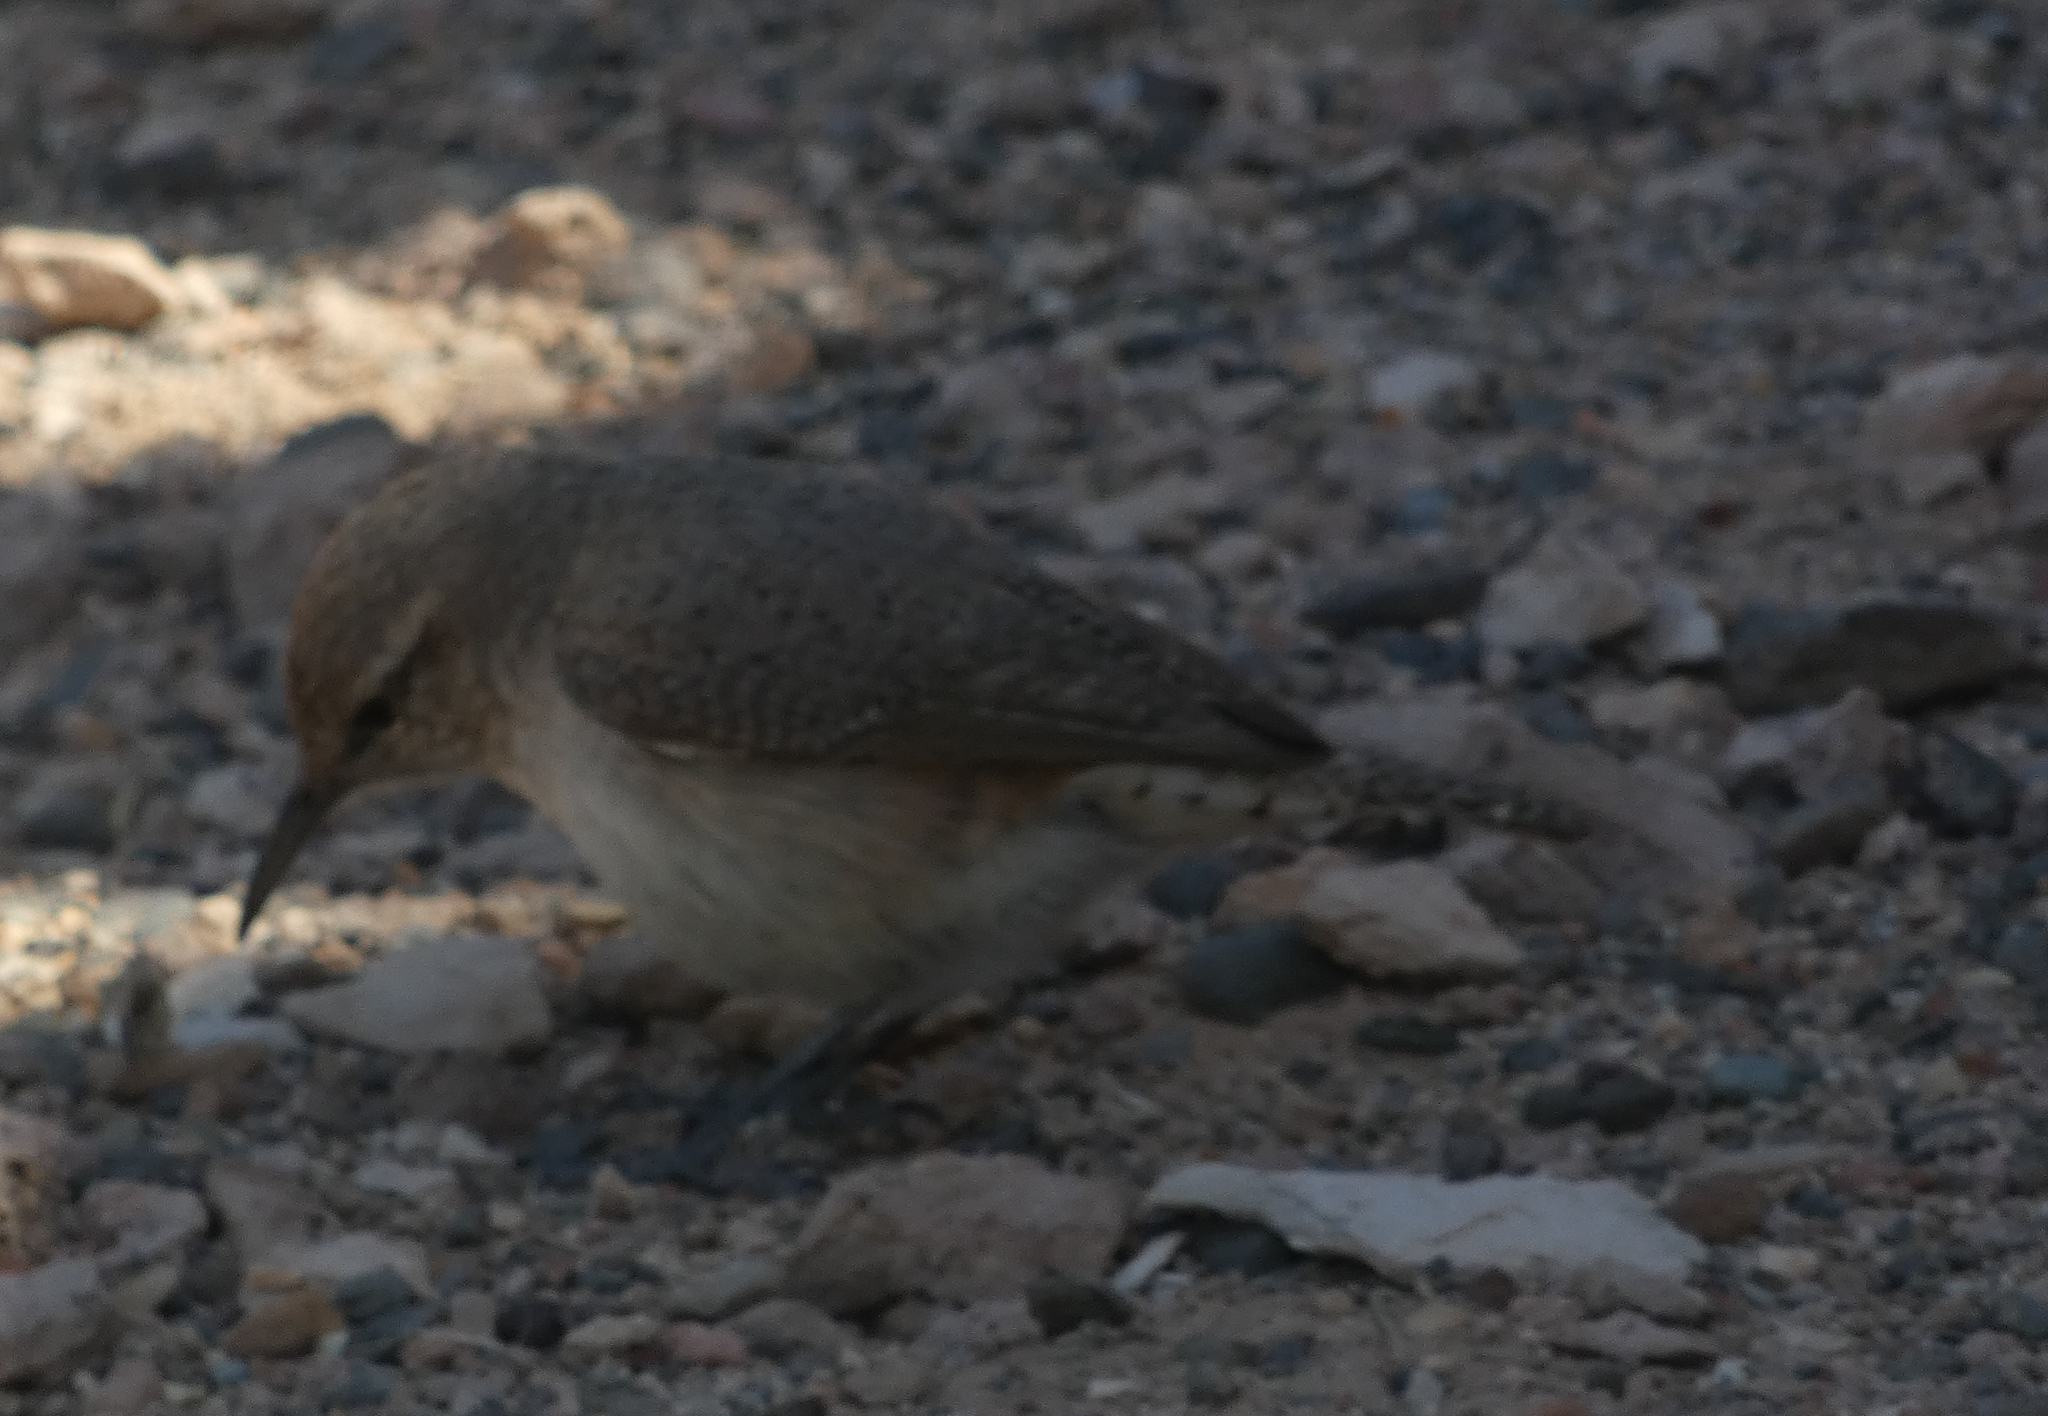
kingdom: Animalia
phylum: Chordata
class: Aves
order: Passeriformes
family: Troglodytidae
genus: Salpinctes
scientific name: Salpinctes obsoletus
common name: Rock wren
